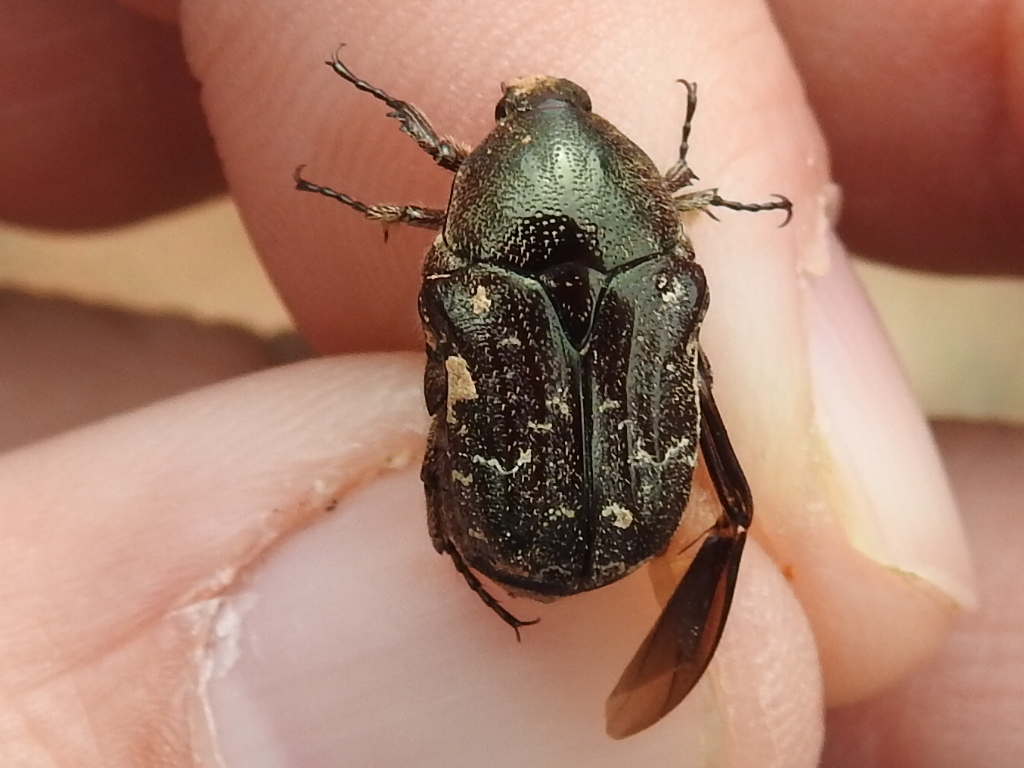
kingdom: Animalia
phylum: Arthropoda
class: Insecta
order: Coleoptera
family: Scarabaeidae
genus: Euphoria
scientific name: Euphoria sepulcralis
